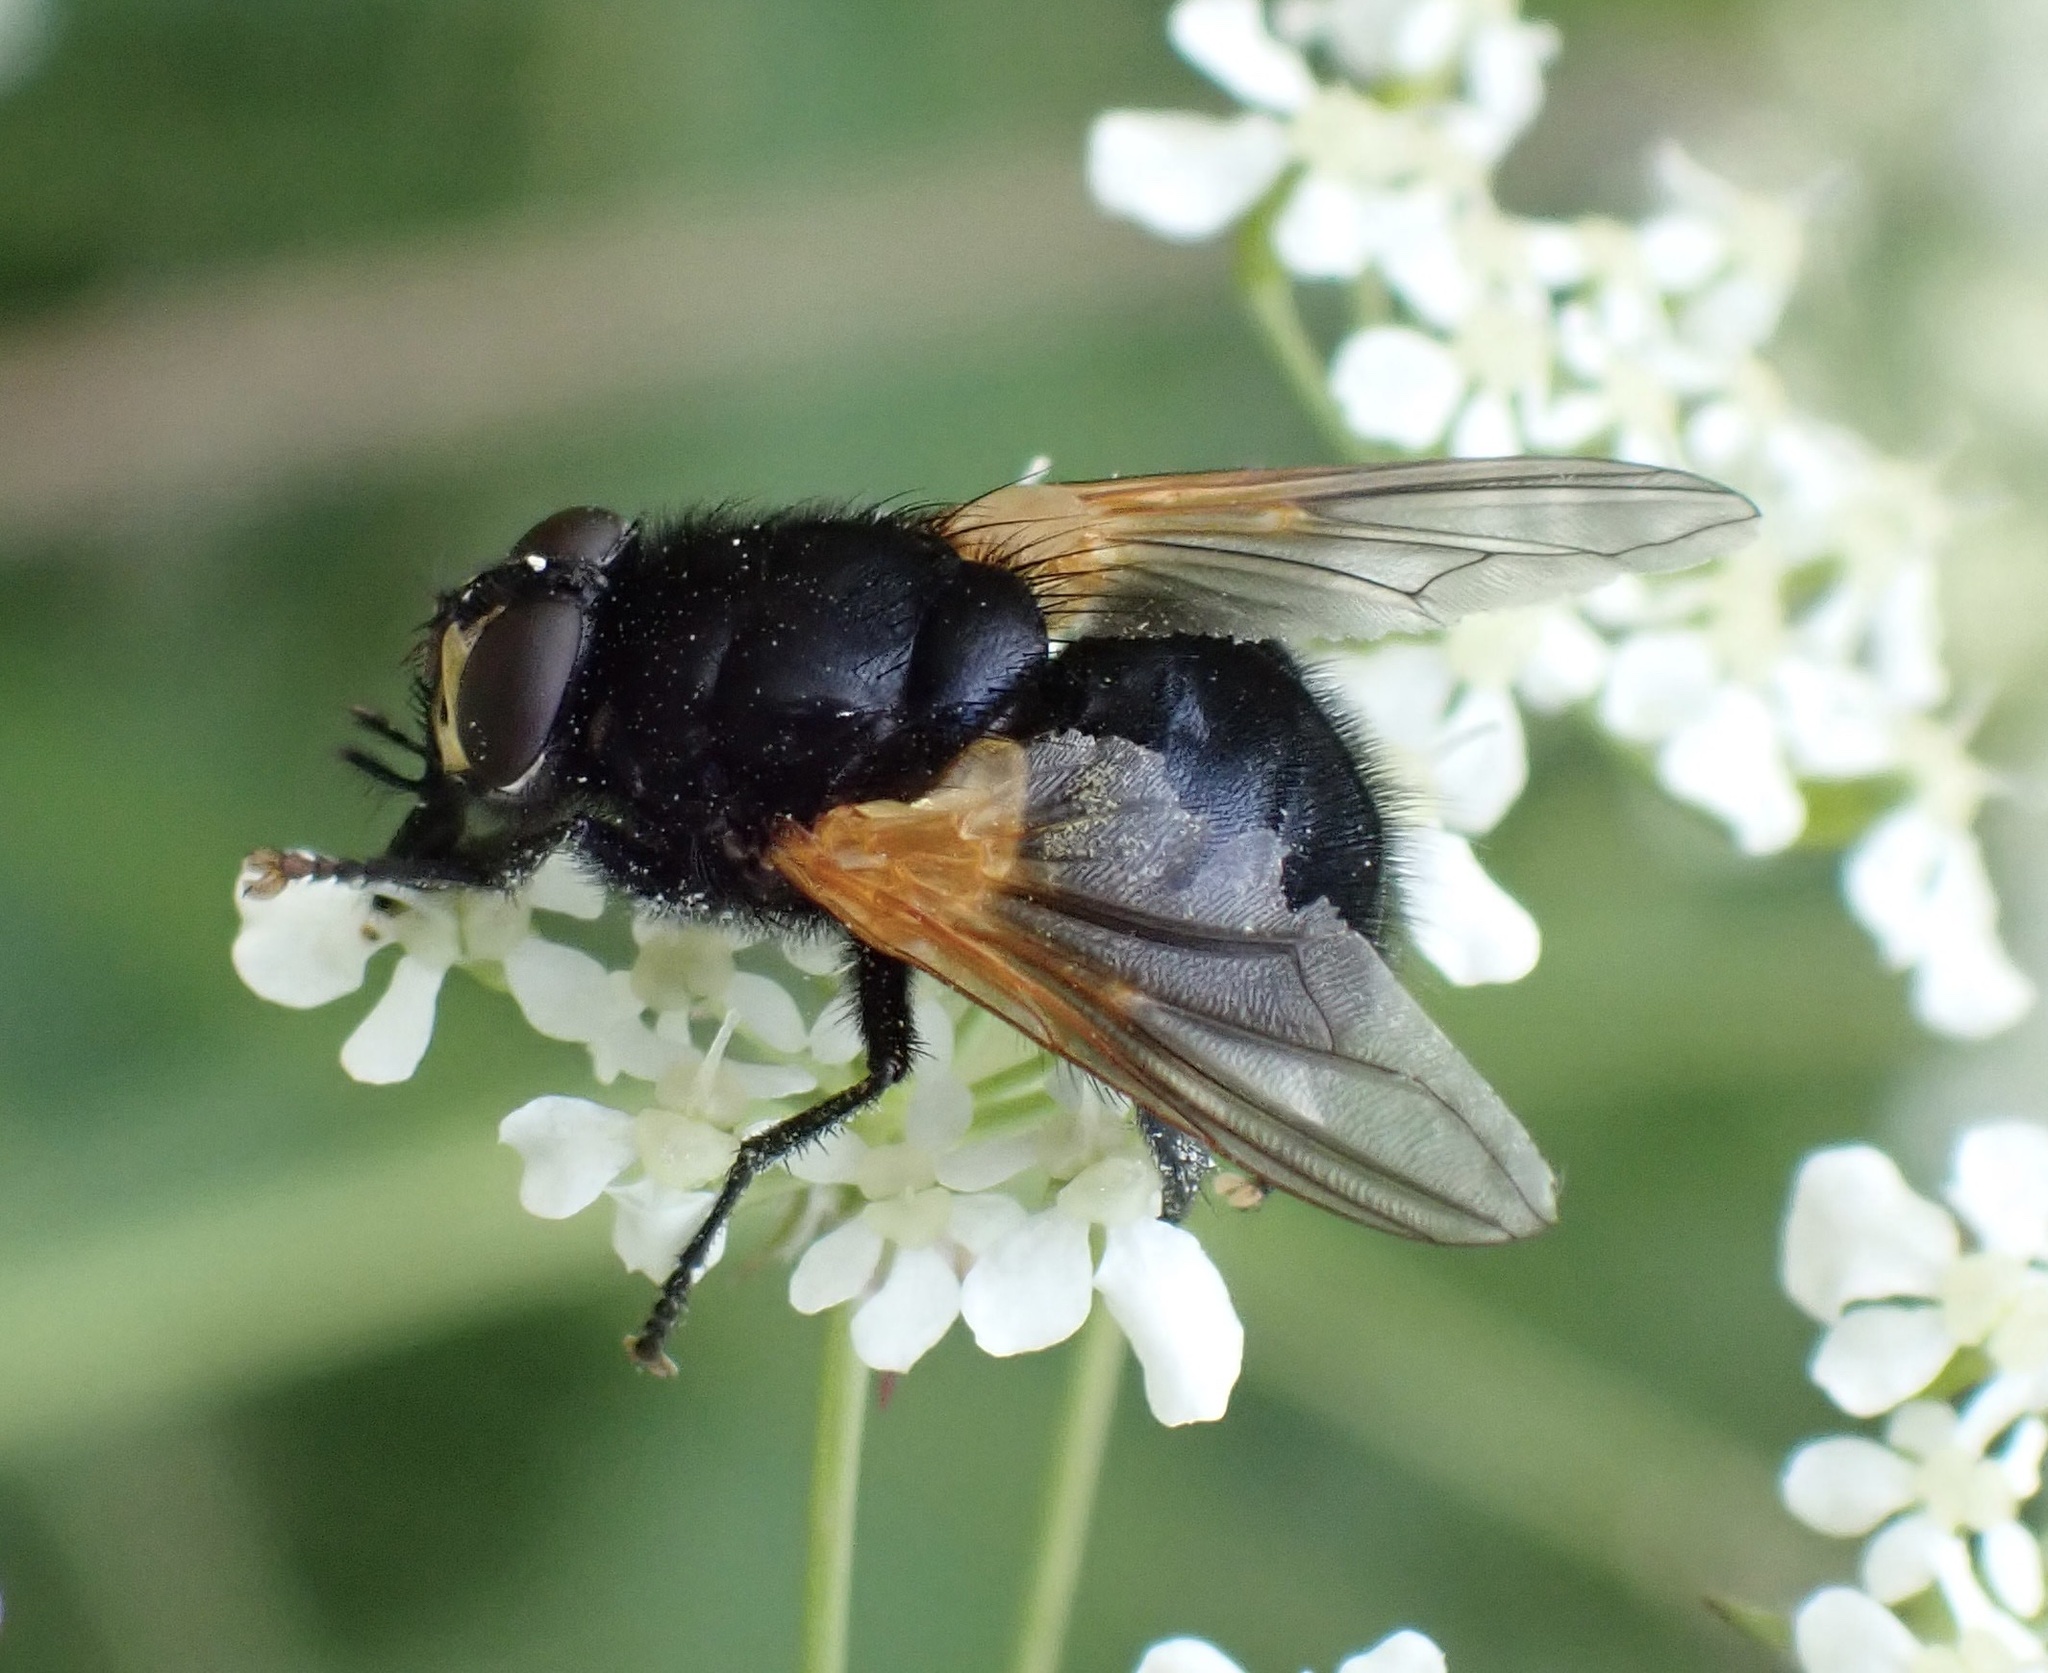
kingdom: Animalia
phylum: Arthropoda
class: Insecta
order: Diptera
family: Muscidae
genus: Mesembrina
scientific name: Mesembrina meridiana
